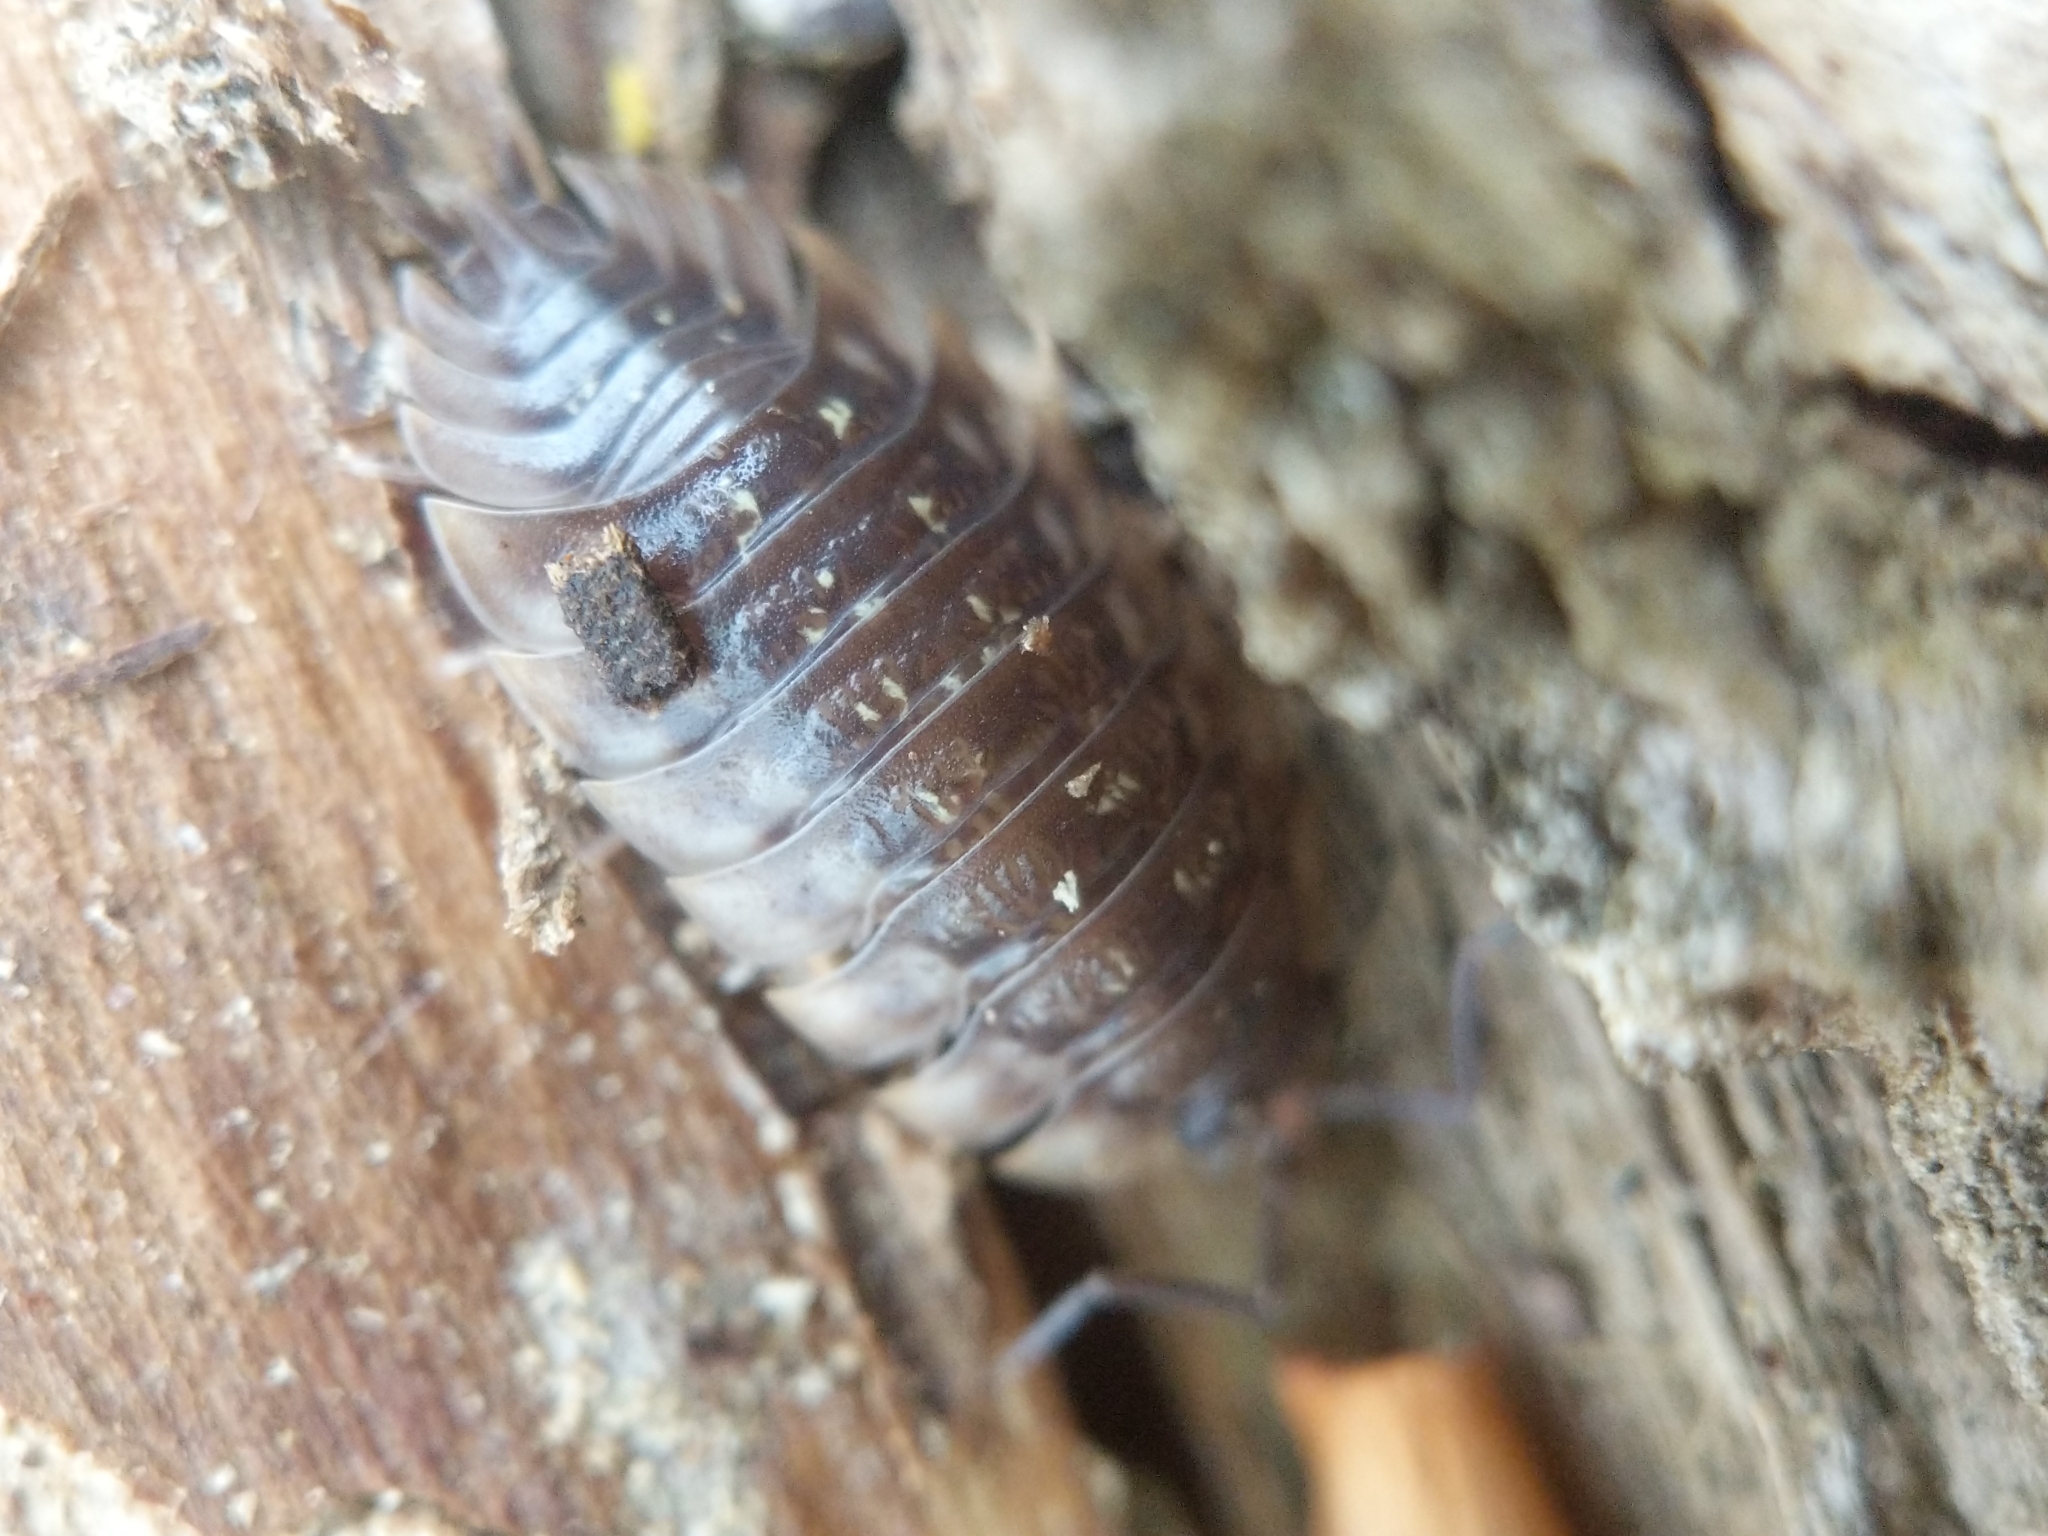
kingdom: Animalia
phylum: Arthropoda
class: Malacostraca
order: Isopoda
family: Oniscidae
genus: Oniscus
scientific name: Oniscus asellus
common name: Common shiny woodlouse
